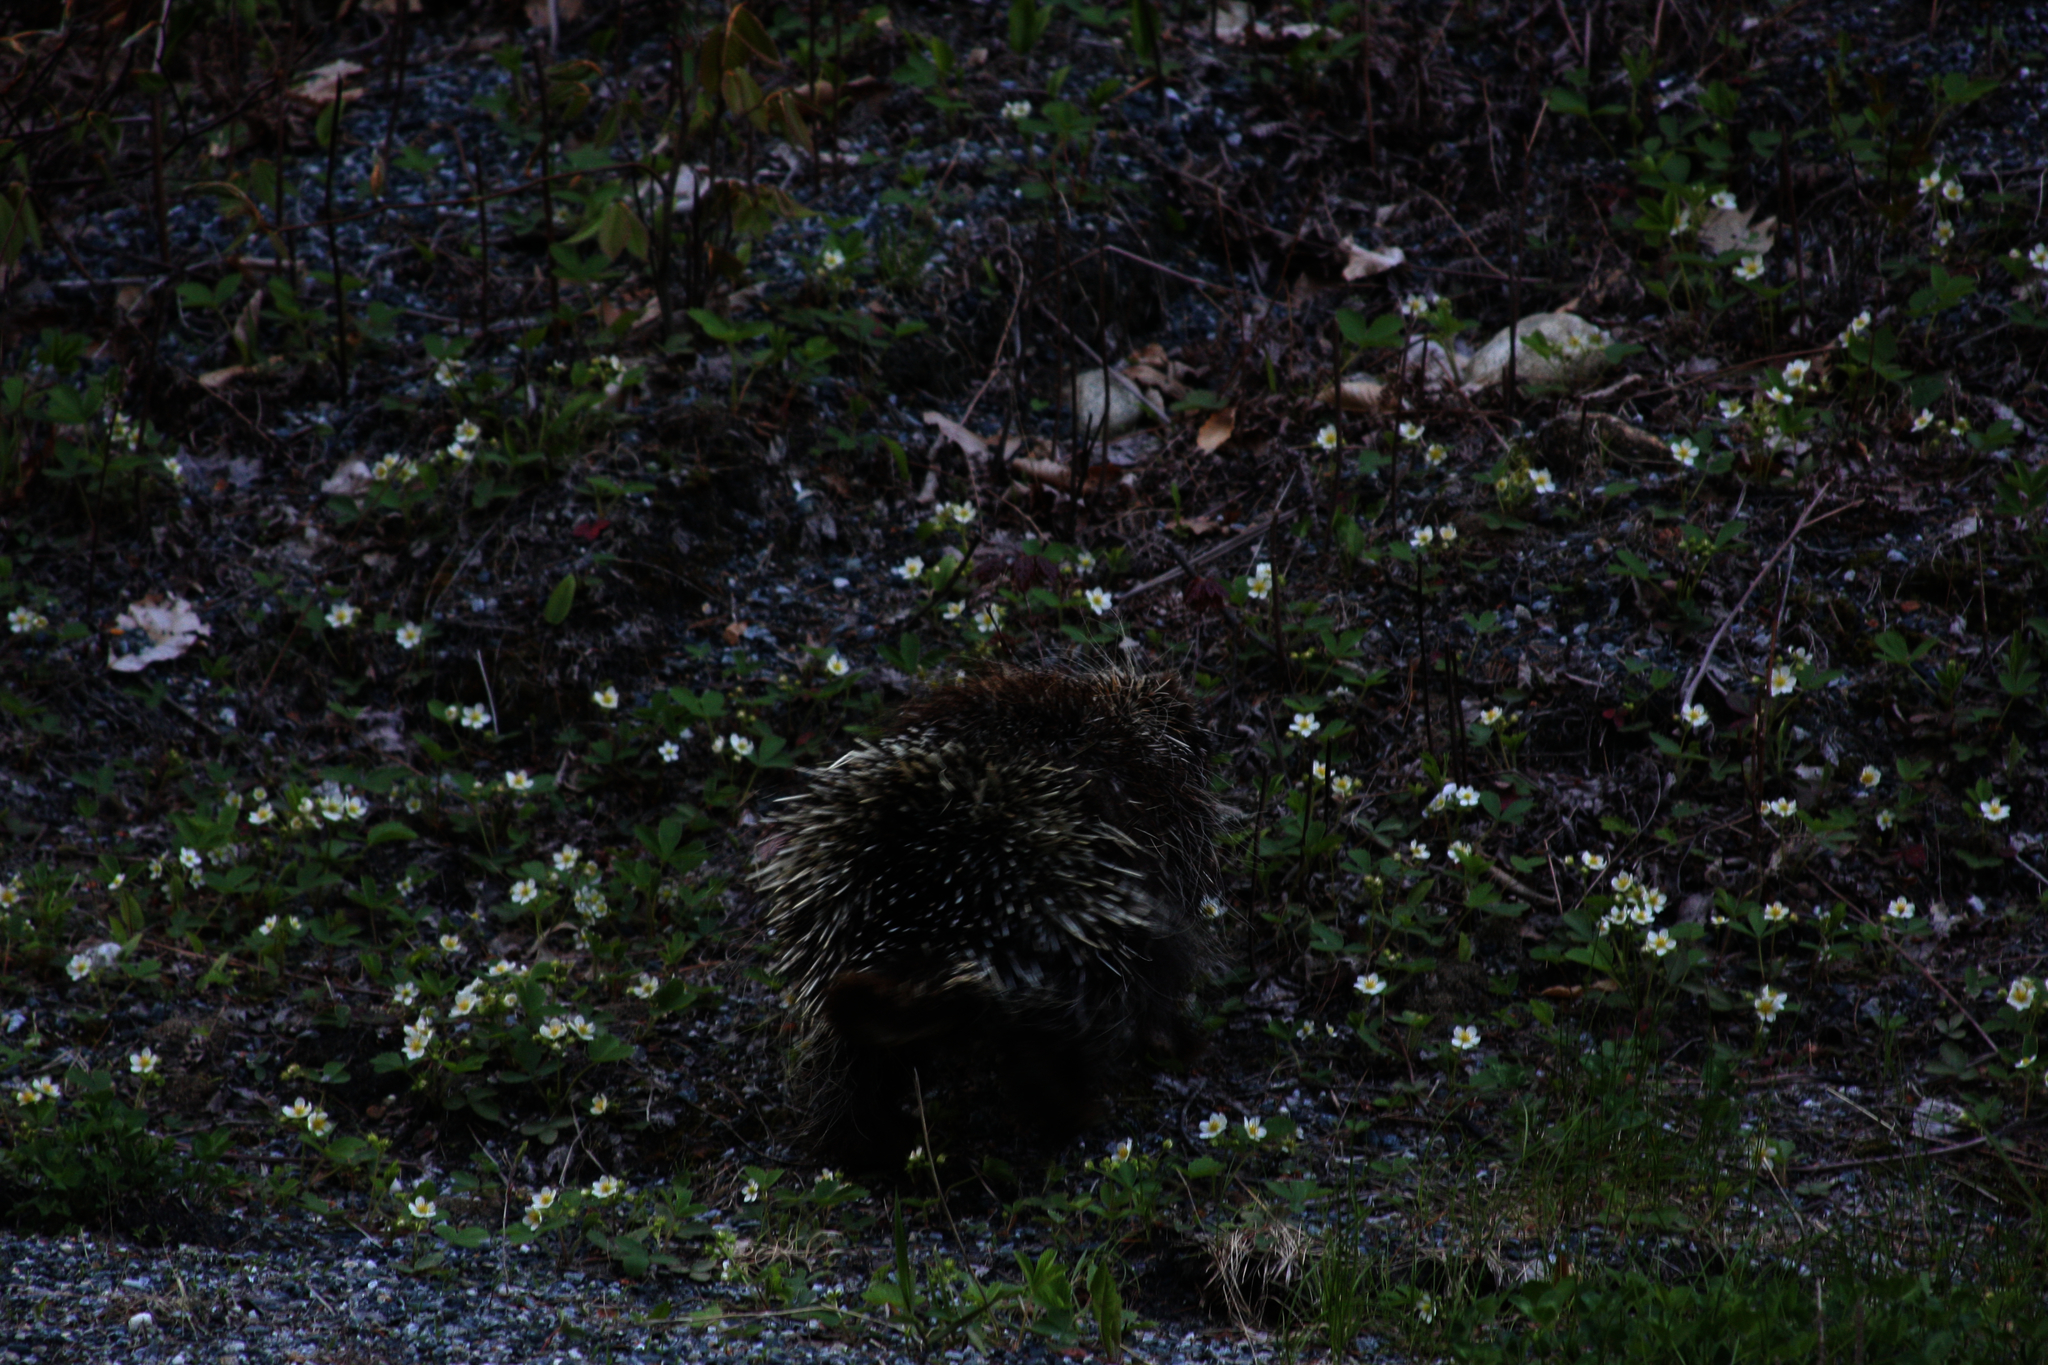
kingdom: Animalia
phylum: Chordata
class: Mammalia
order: Rodentia
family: Erethizontidae
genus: Erethizon
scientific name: Erethizon dorsatus
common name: North american porcupine
